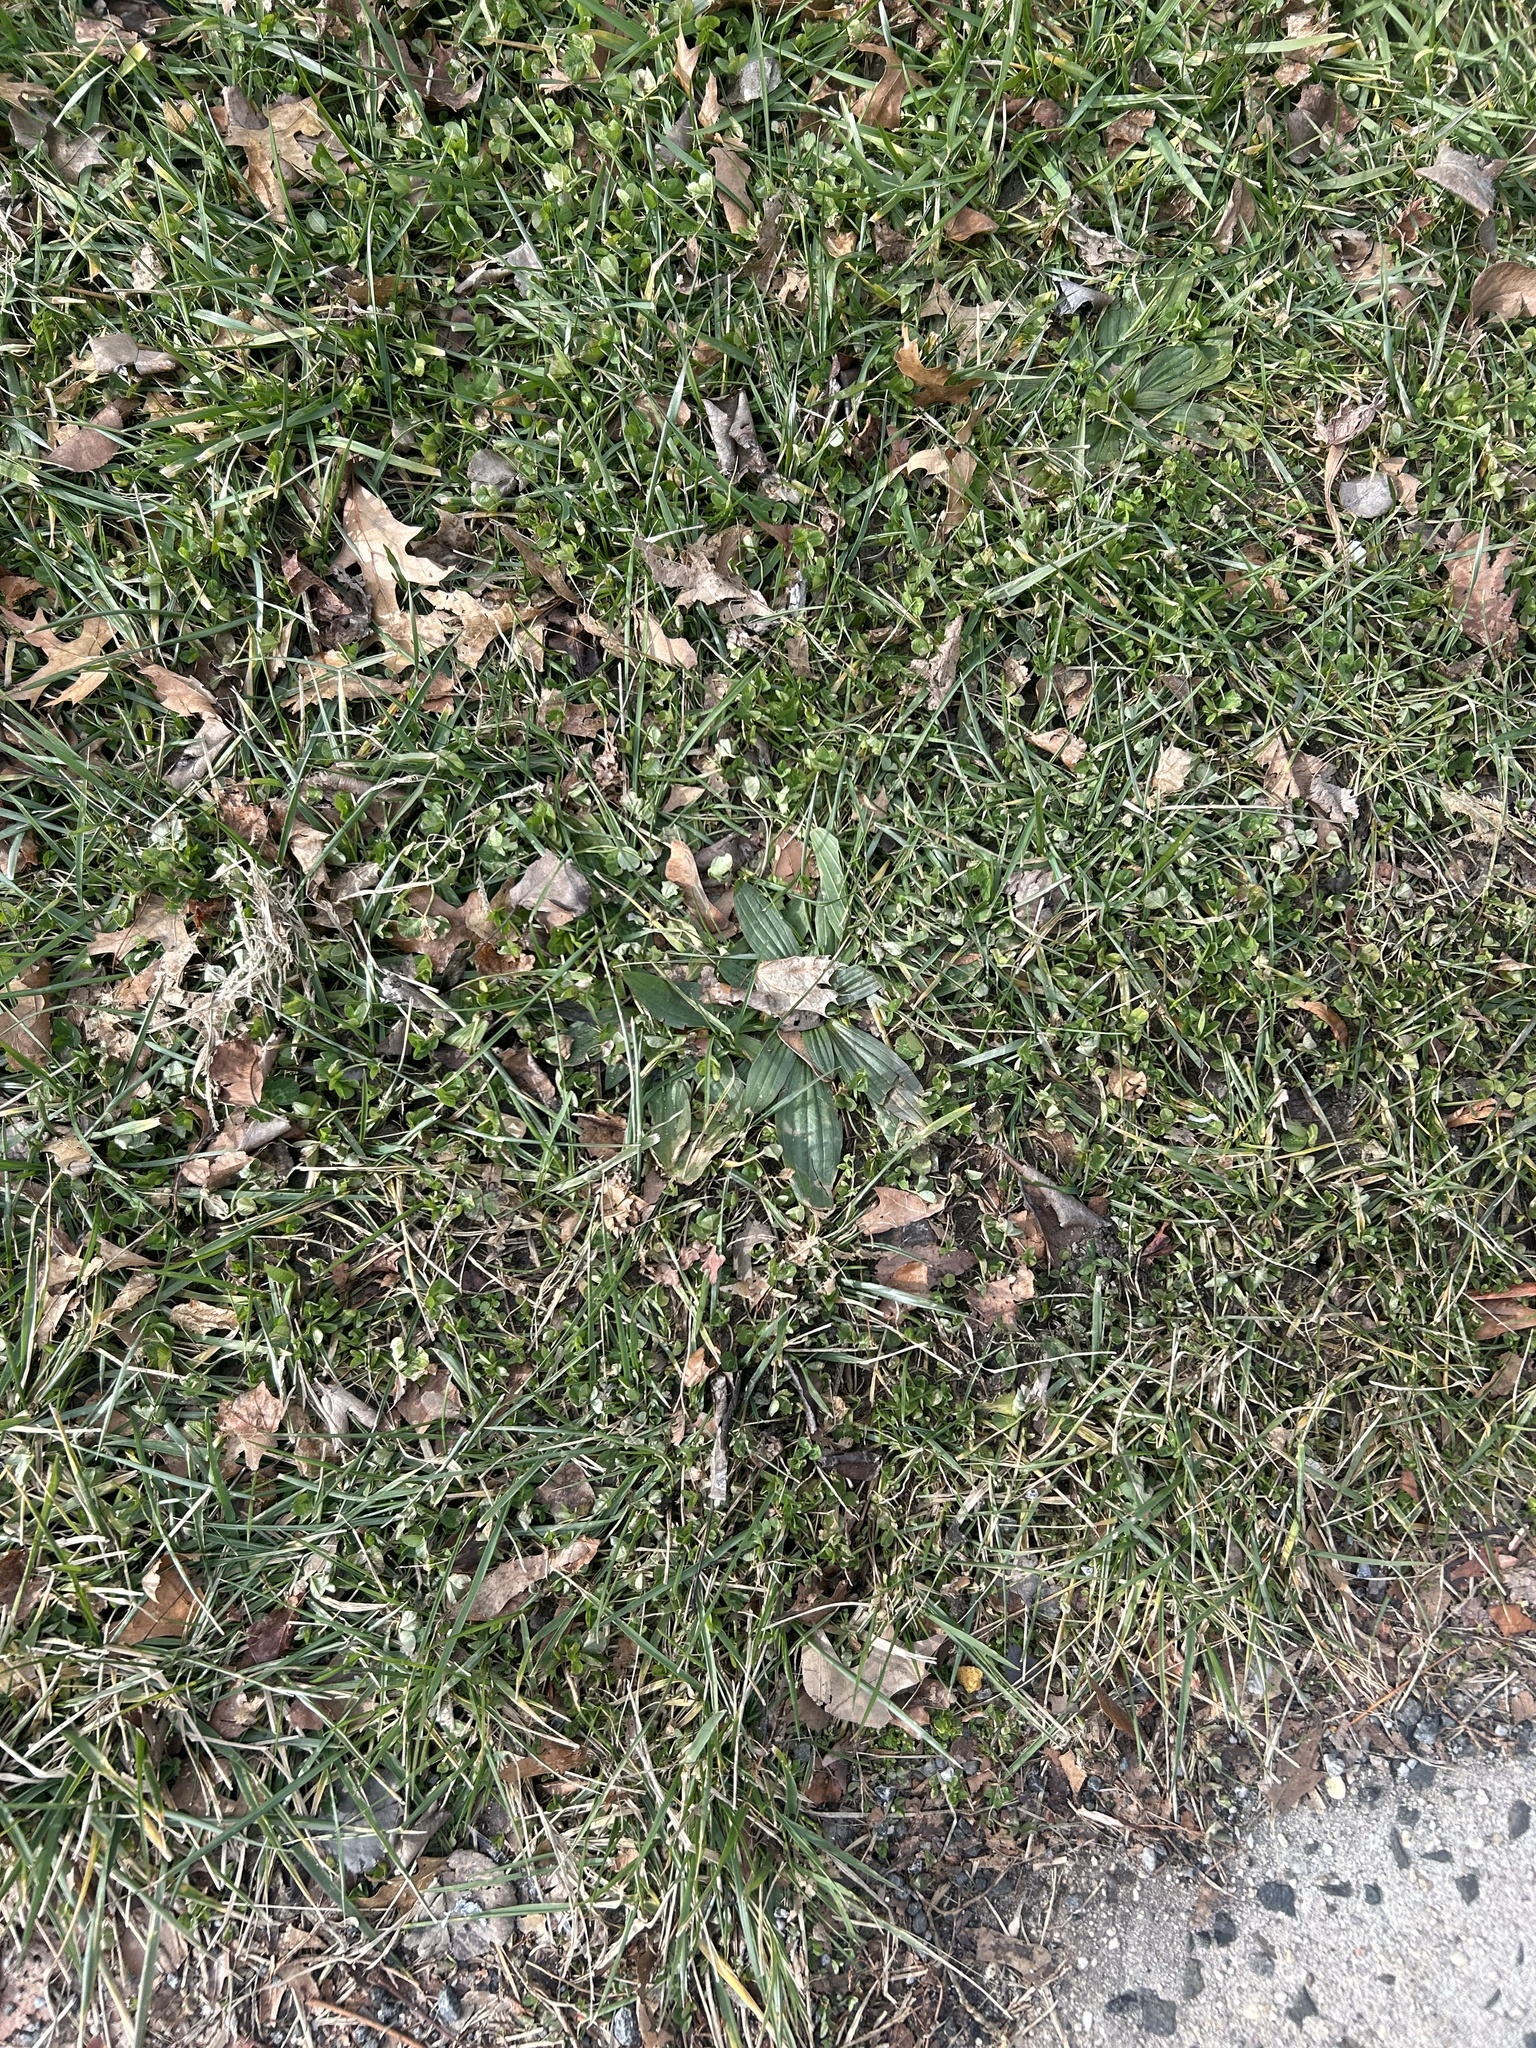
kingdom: Plantae
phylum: Tracheophyta
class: Magnoliopsida
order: Lamiales
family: Plantaginaceae
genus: Plantago
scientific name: Plantago lanceolata
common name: Ribwort plantain
